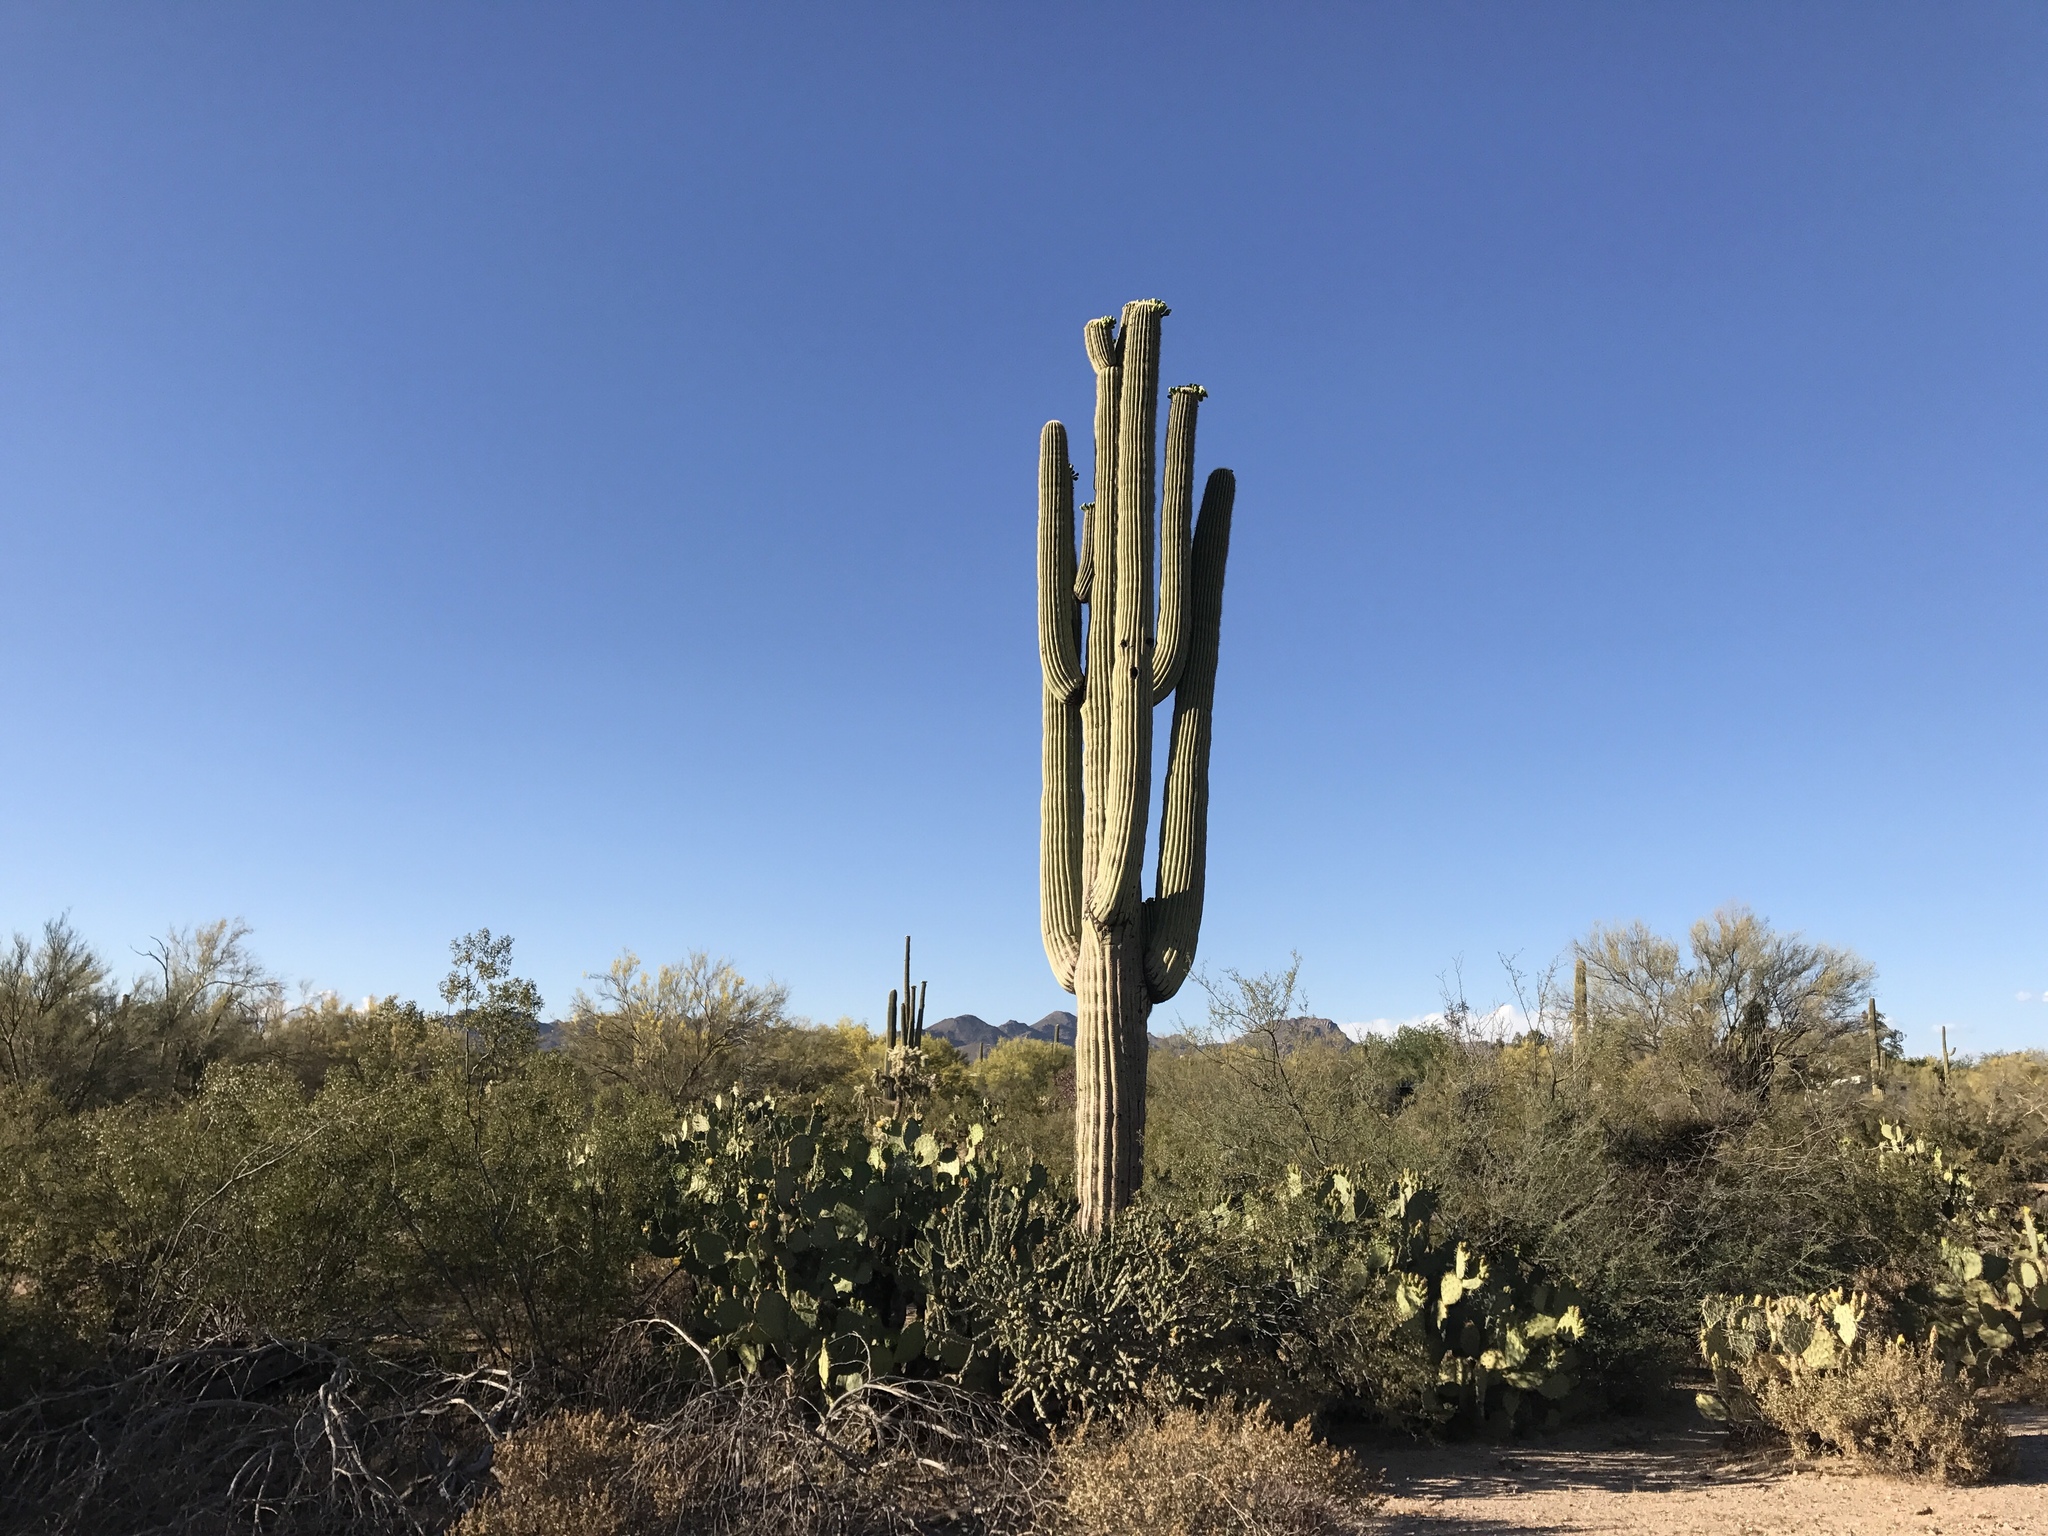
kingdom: Plantae
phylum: Tracheophyta
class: Magnoliopsida
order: Caryophyllales
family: Cactaceae
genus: Carnegiea
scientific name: Carnegiea gigantea
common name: Saguaro
